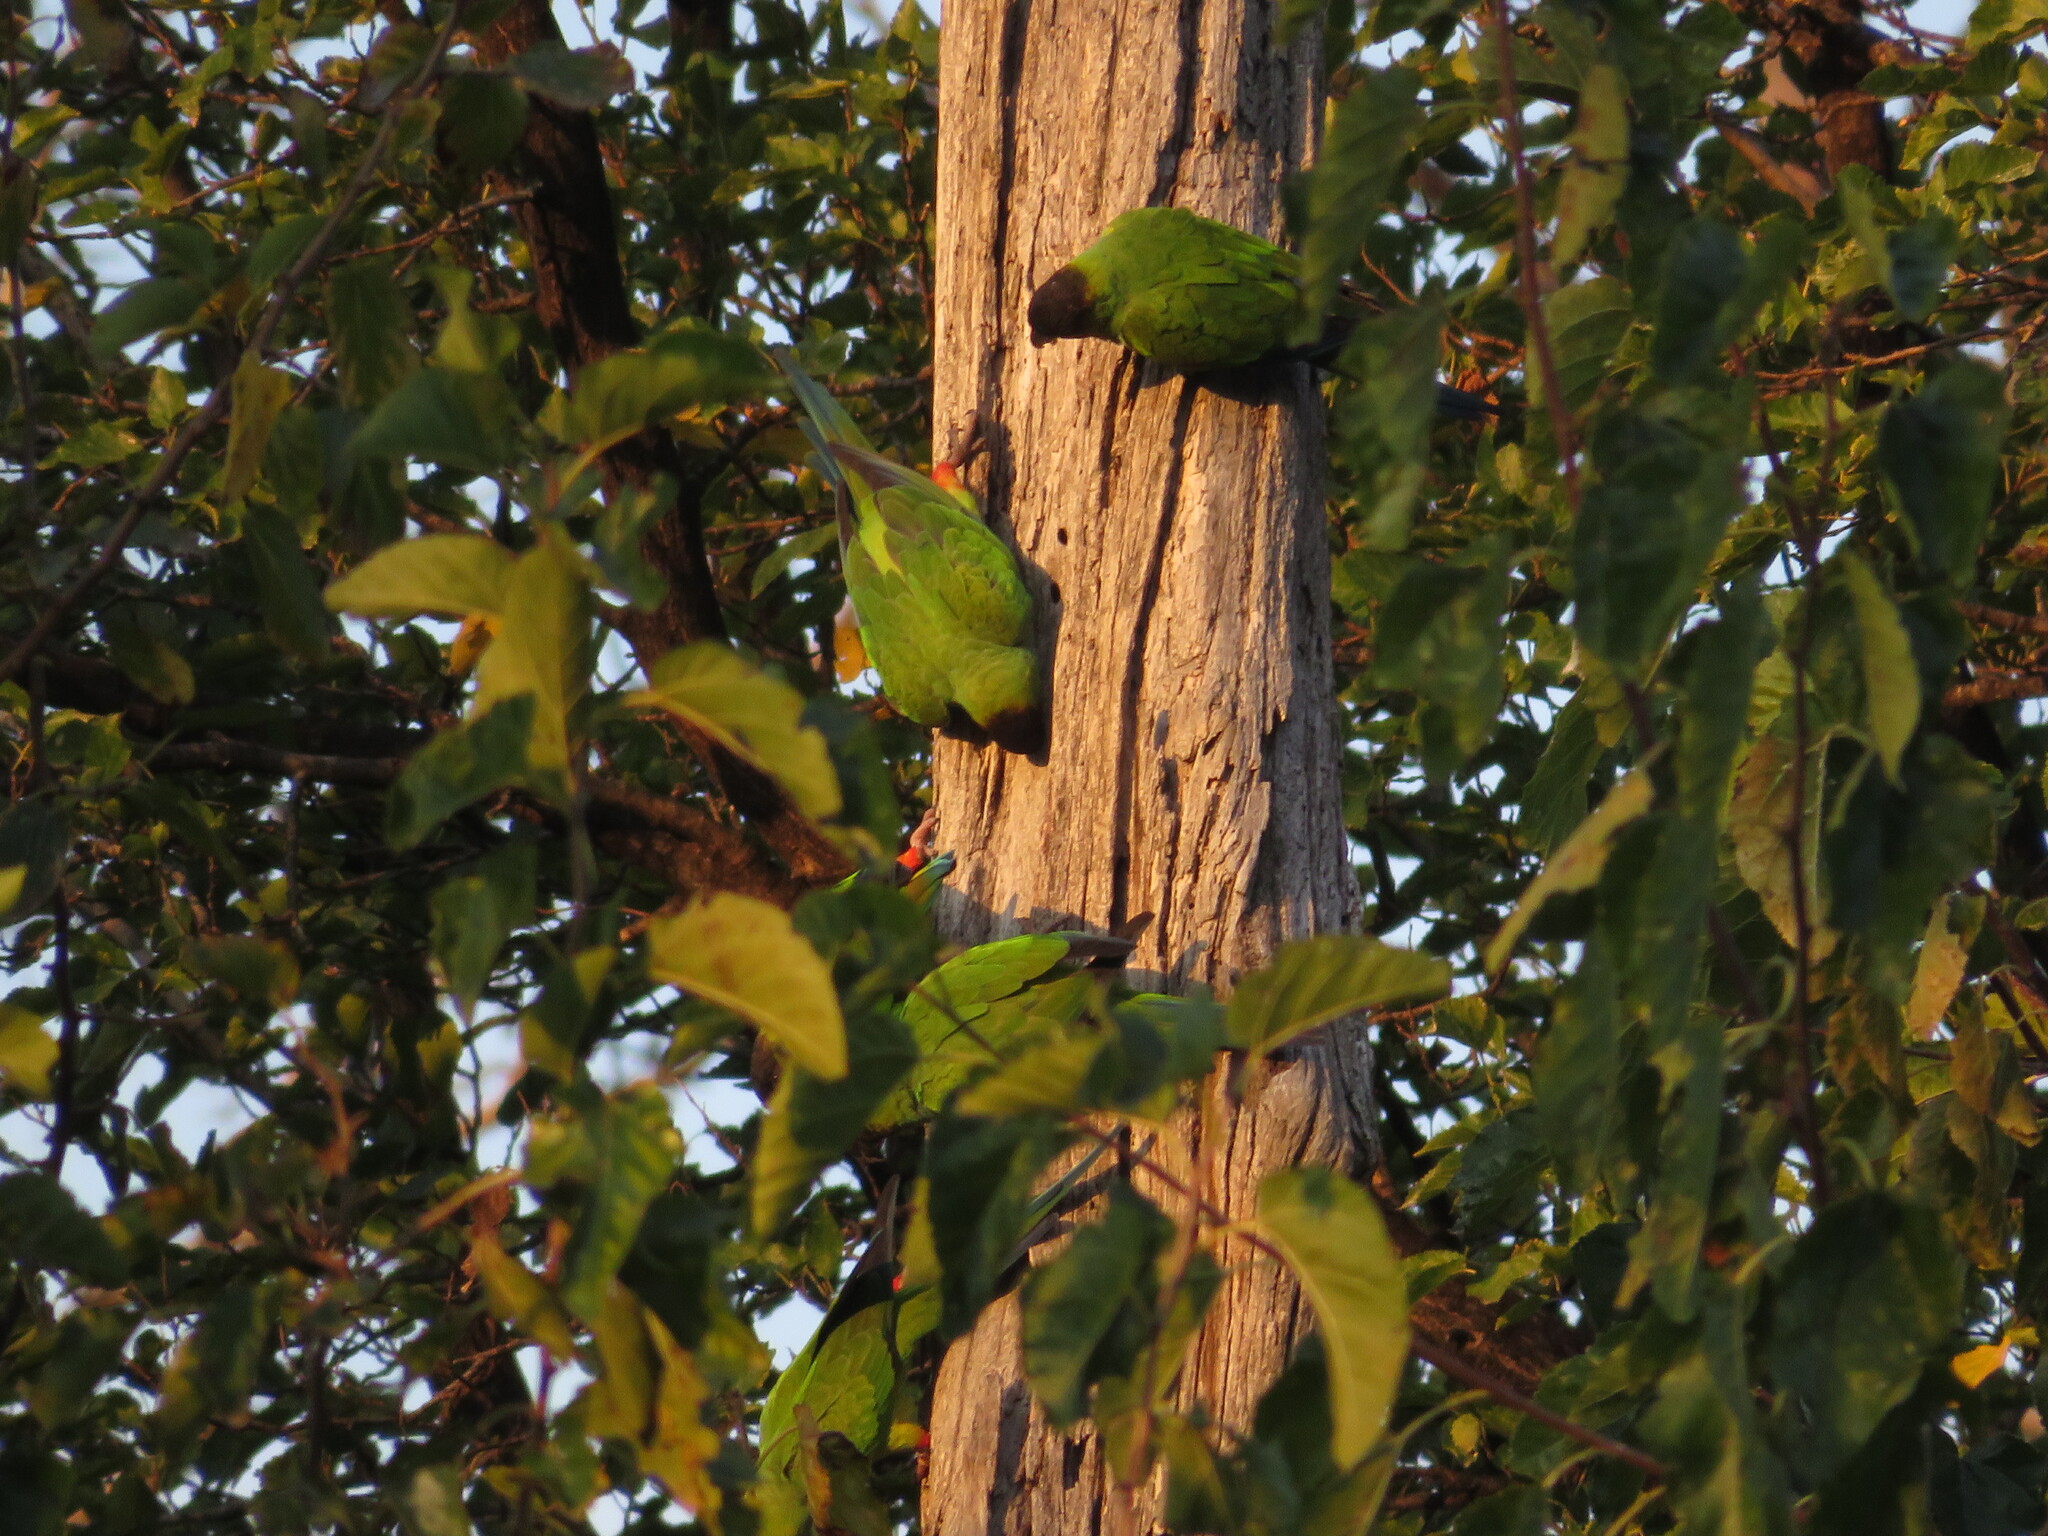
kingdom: Animalia
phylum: Chordata
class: Aves
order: Psittaciformes
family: Psittacidae
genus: Nandayus
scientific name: Nandayus nenday
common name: Nanday parakeet
